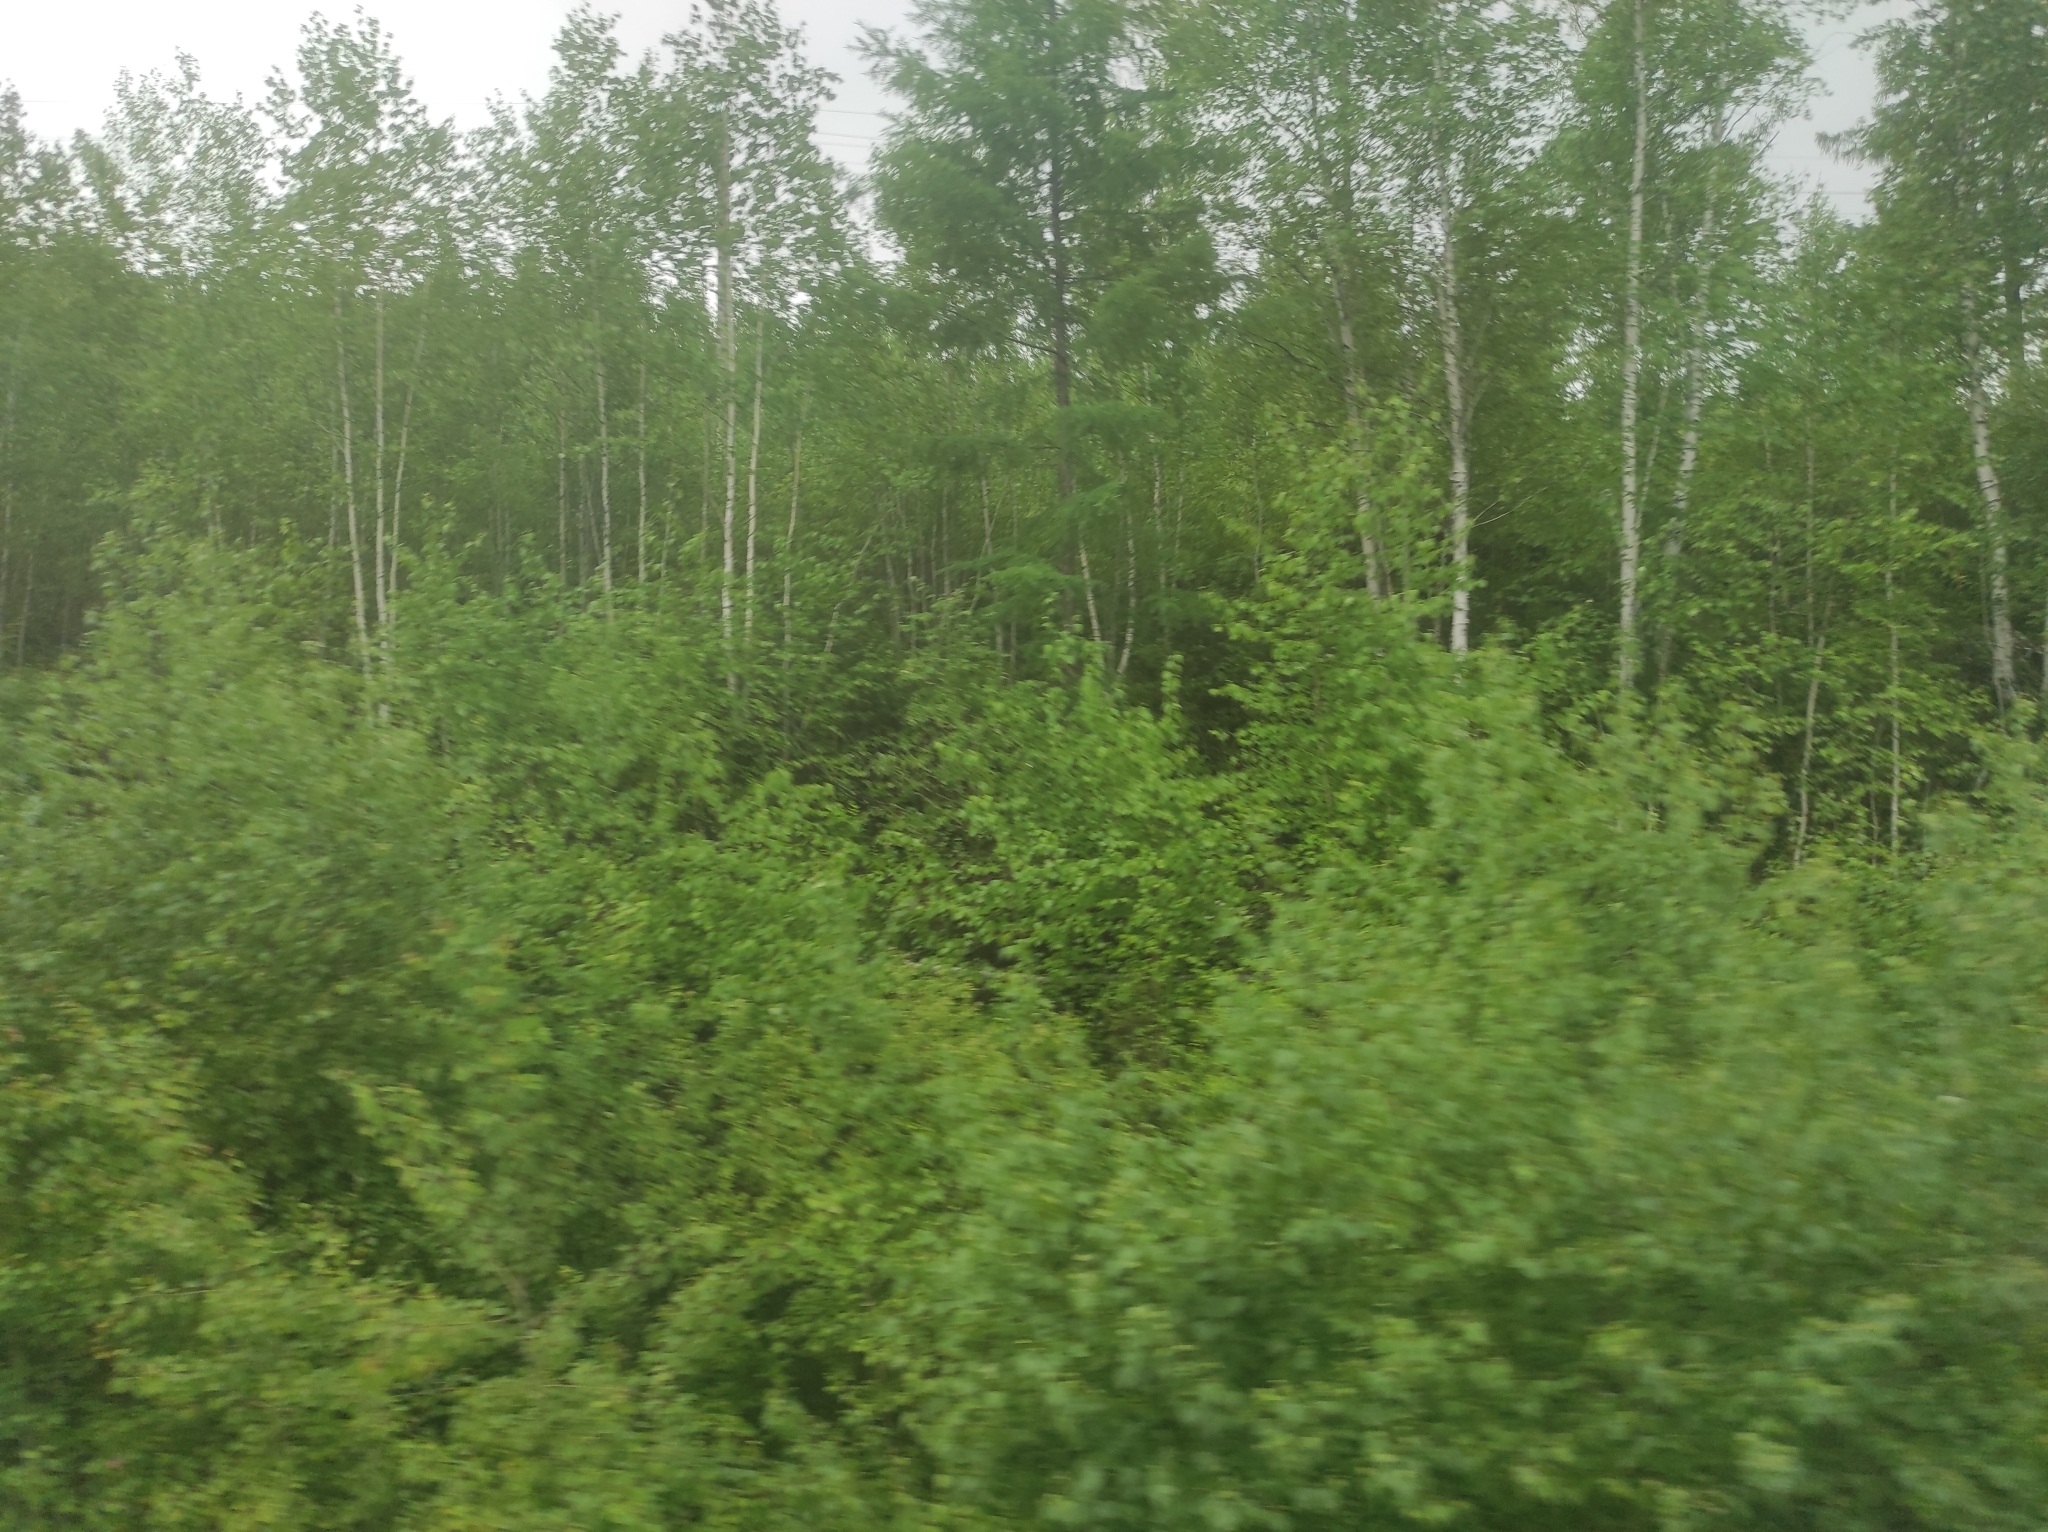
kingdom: Plantae
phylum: Tracheophyta
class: Pinopsida
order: Pinales
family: Pinaceae
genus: Larix
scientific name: Larix gmelinii
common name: Dahurian larch
